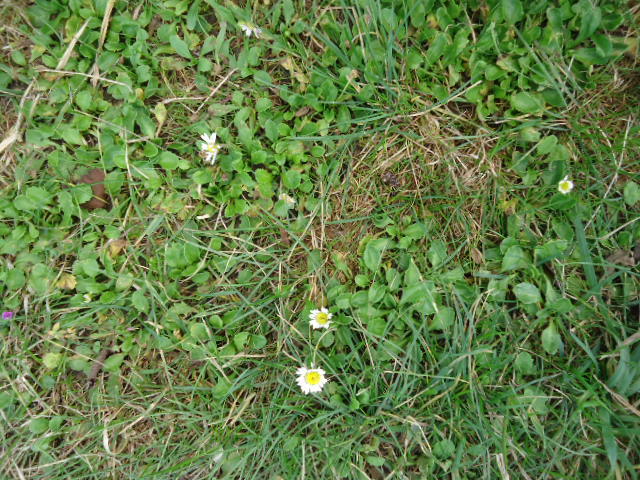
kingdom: Plantae
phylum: Tracheophyta
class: Magnoliopsida
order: Asterales
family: Asteraceae
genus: Bellis
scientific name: Bellis perennis
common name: Lawndaisy
